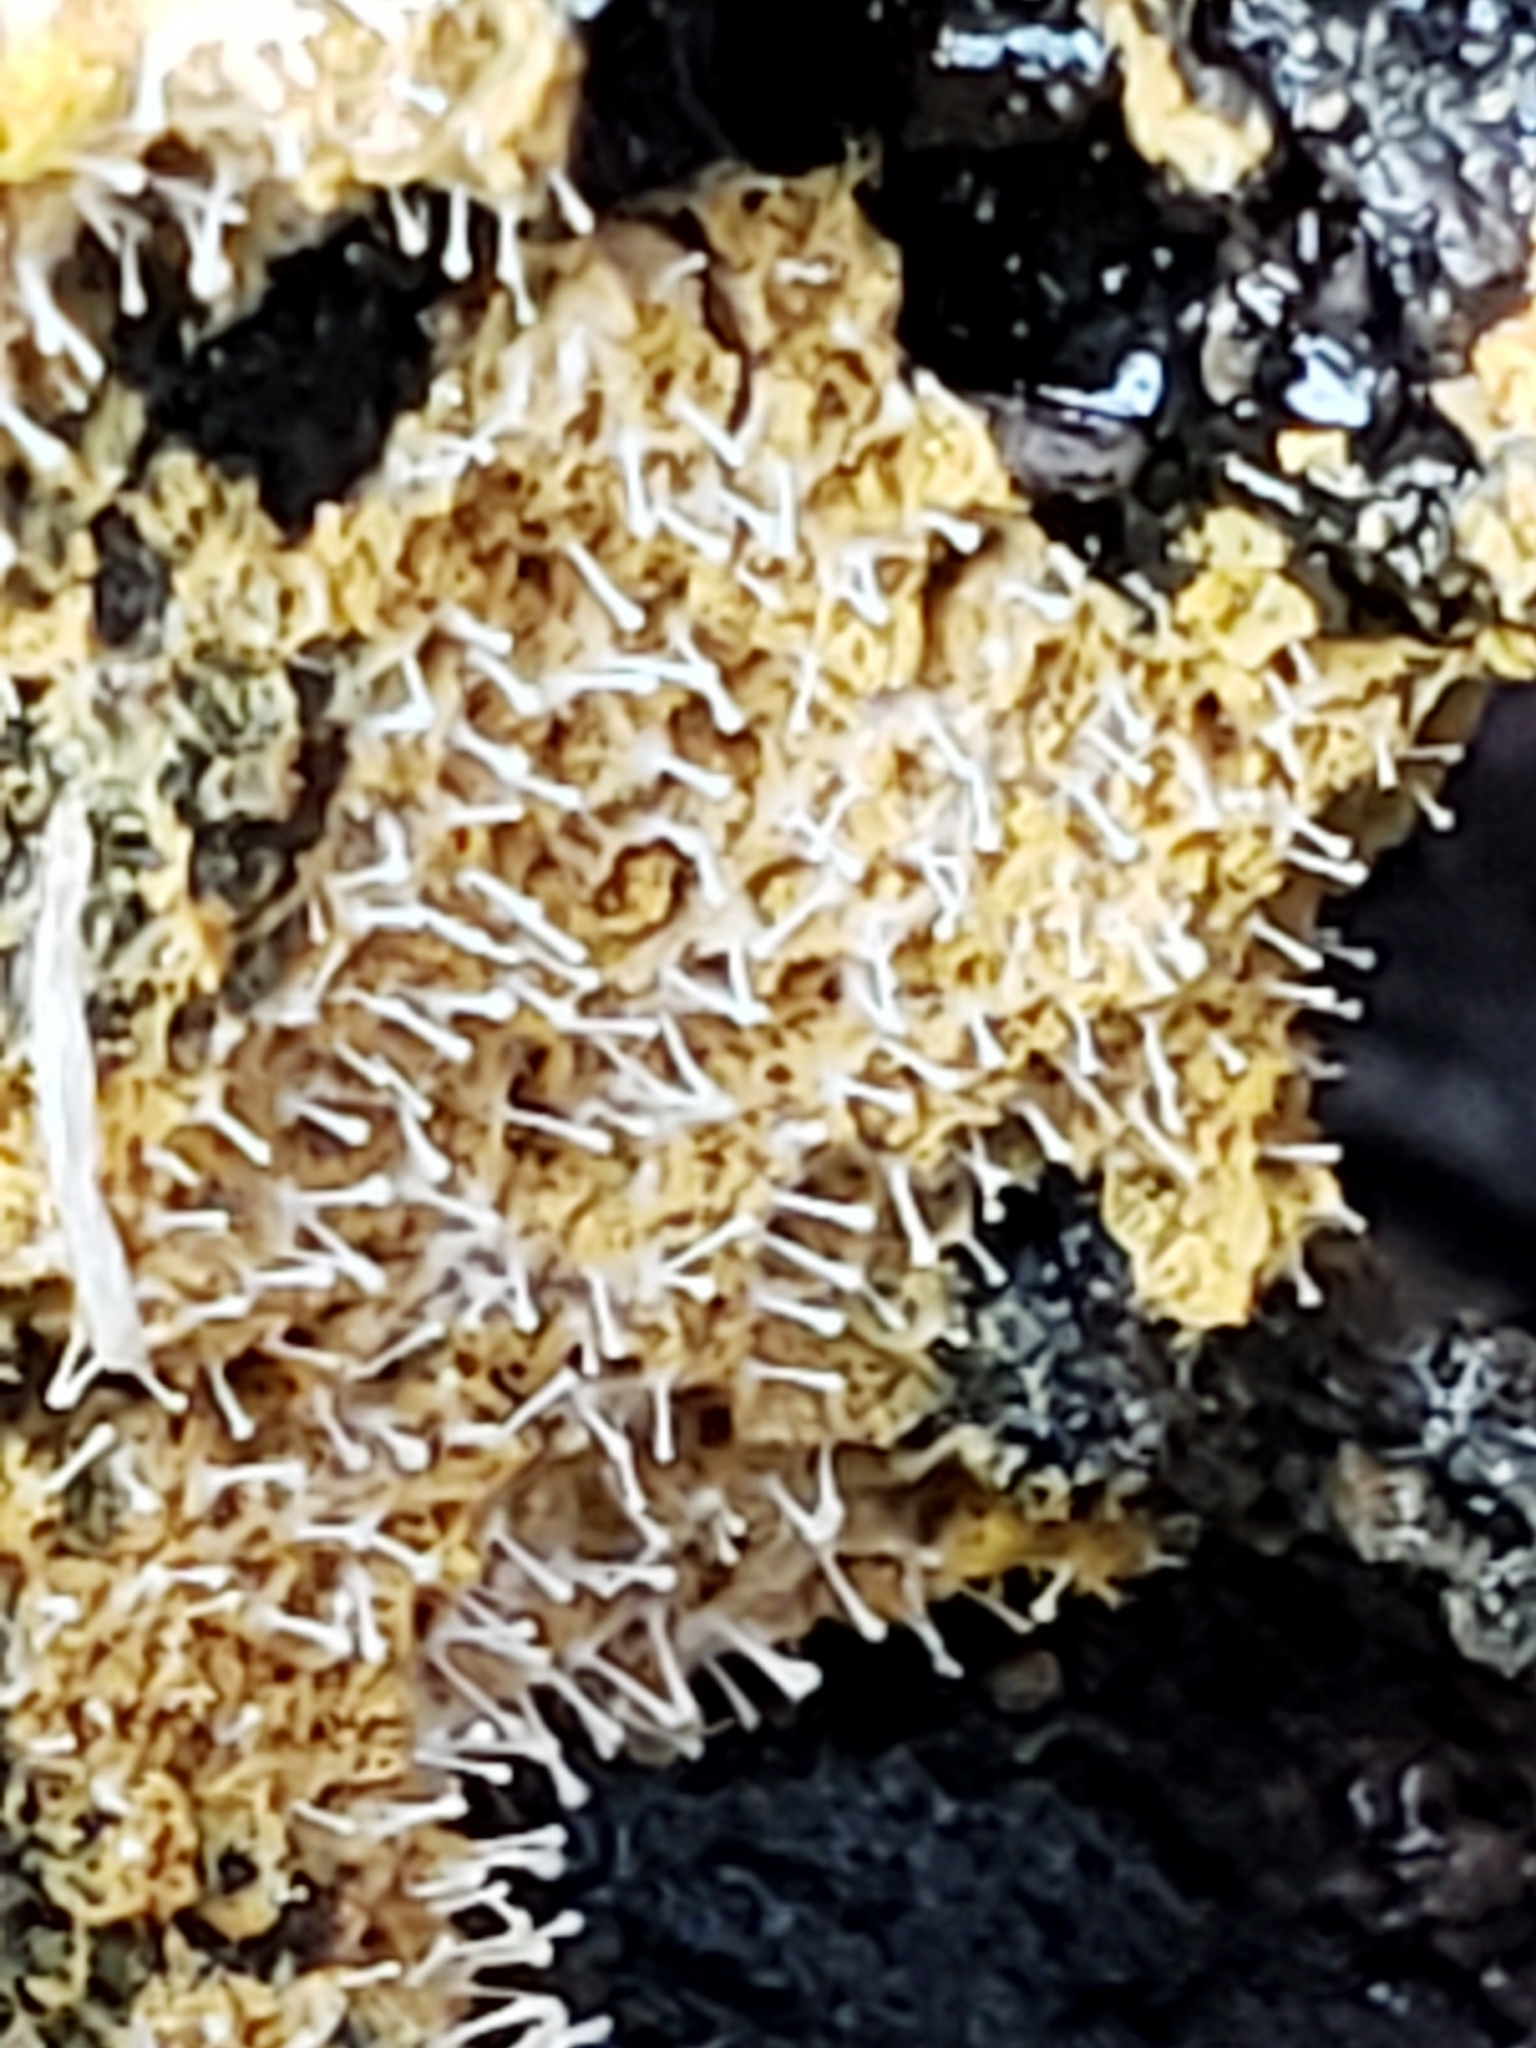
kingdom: Fungi
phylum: Ascomycota
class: Sordariomycetes
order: Hypocreales
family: Ophiocordycipitaceae
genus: Polycephalomyces
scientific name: Polycephalomyces tomentosus
